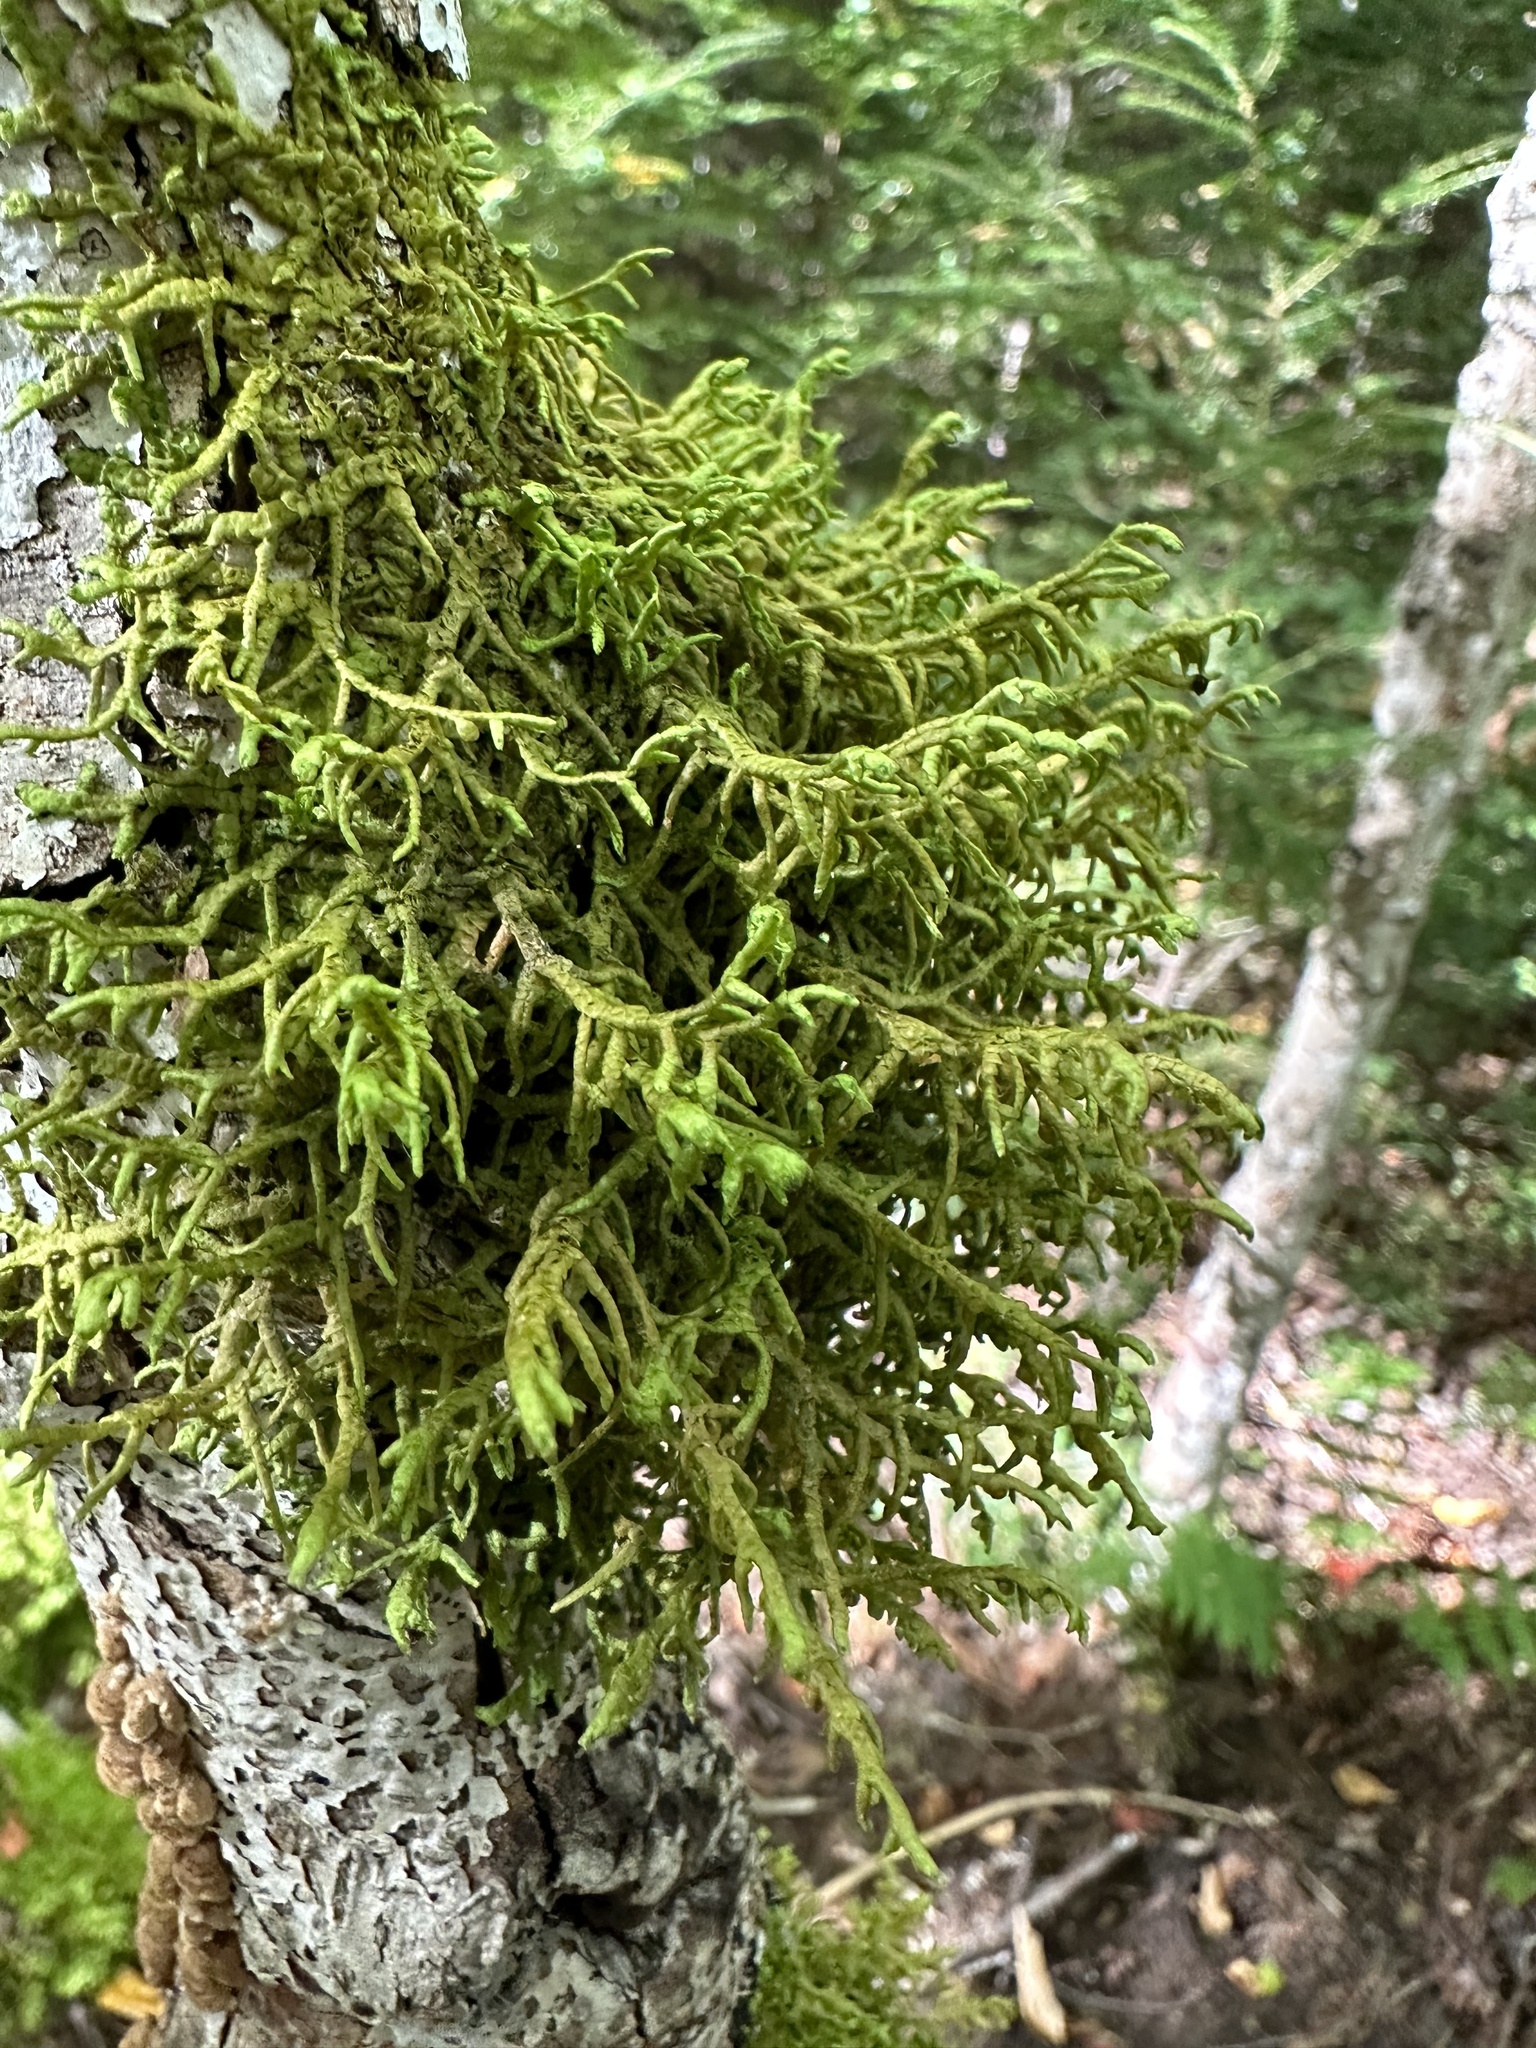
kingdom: Plantae
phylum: Marchantiophyta
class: Jungermanniopsida
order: Porellales
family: Porellaceae
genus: Porella
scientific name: Porella platyphylla
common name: Wall scalewort
